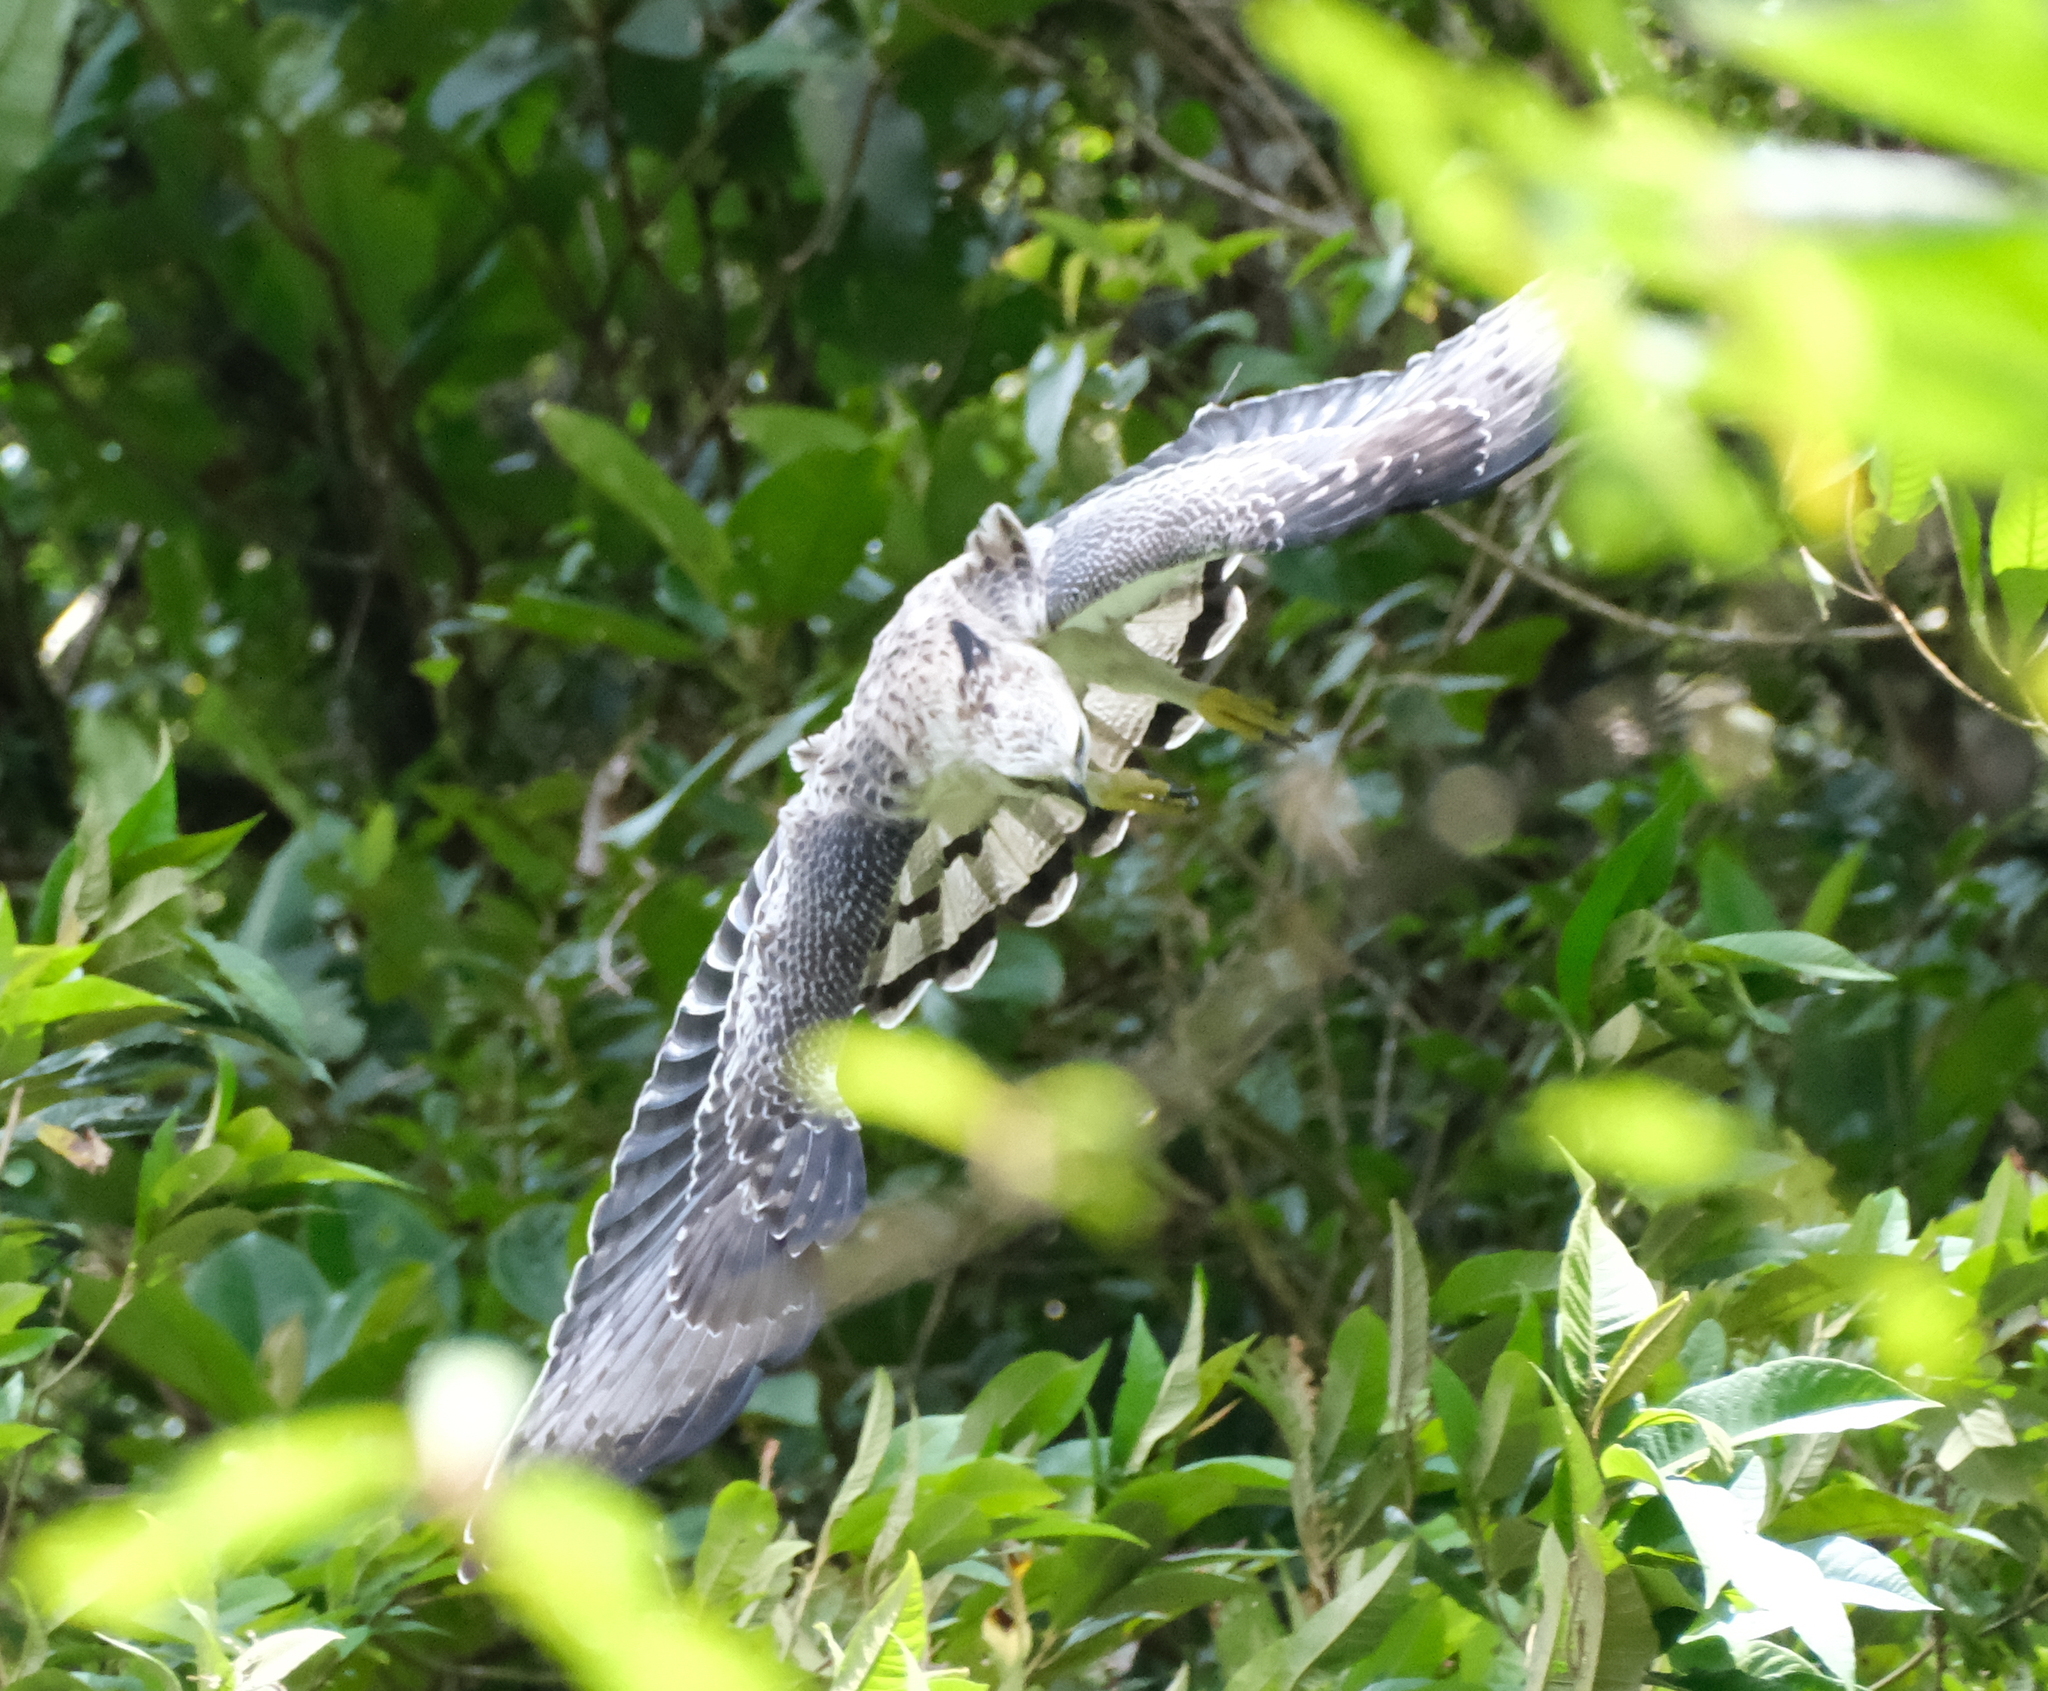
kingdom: Animalia
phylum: Chordata
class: Aves
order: Accipitriformes
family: Accipitridae
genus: Spizaetus
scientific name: Spizaetus isidori
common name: Black-and-chestnut eagle
